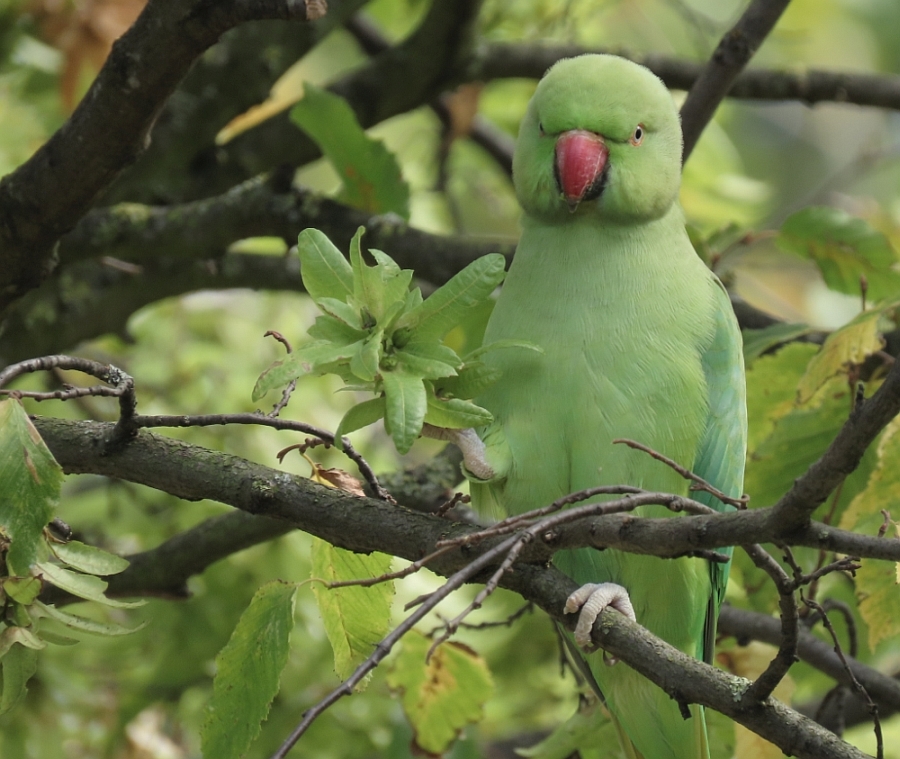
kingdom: Animalia
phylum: Chordata
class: Aves
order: Psittaciformes
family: Psittacidae
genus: Psittacula
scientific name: Psittacula krameri
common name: Rose-ringed parakeet
